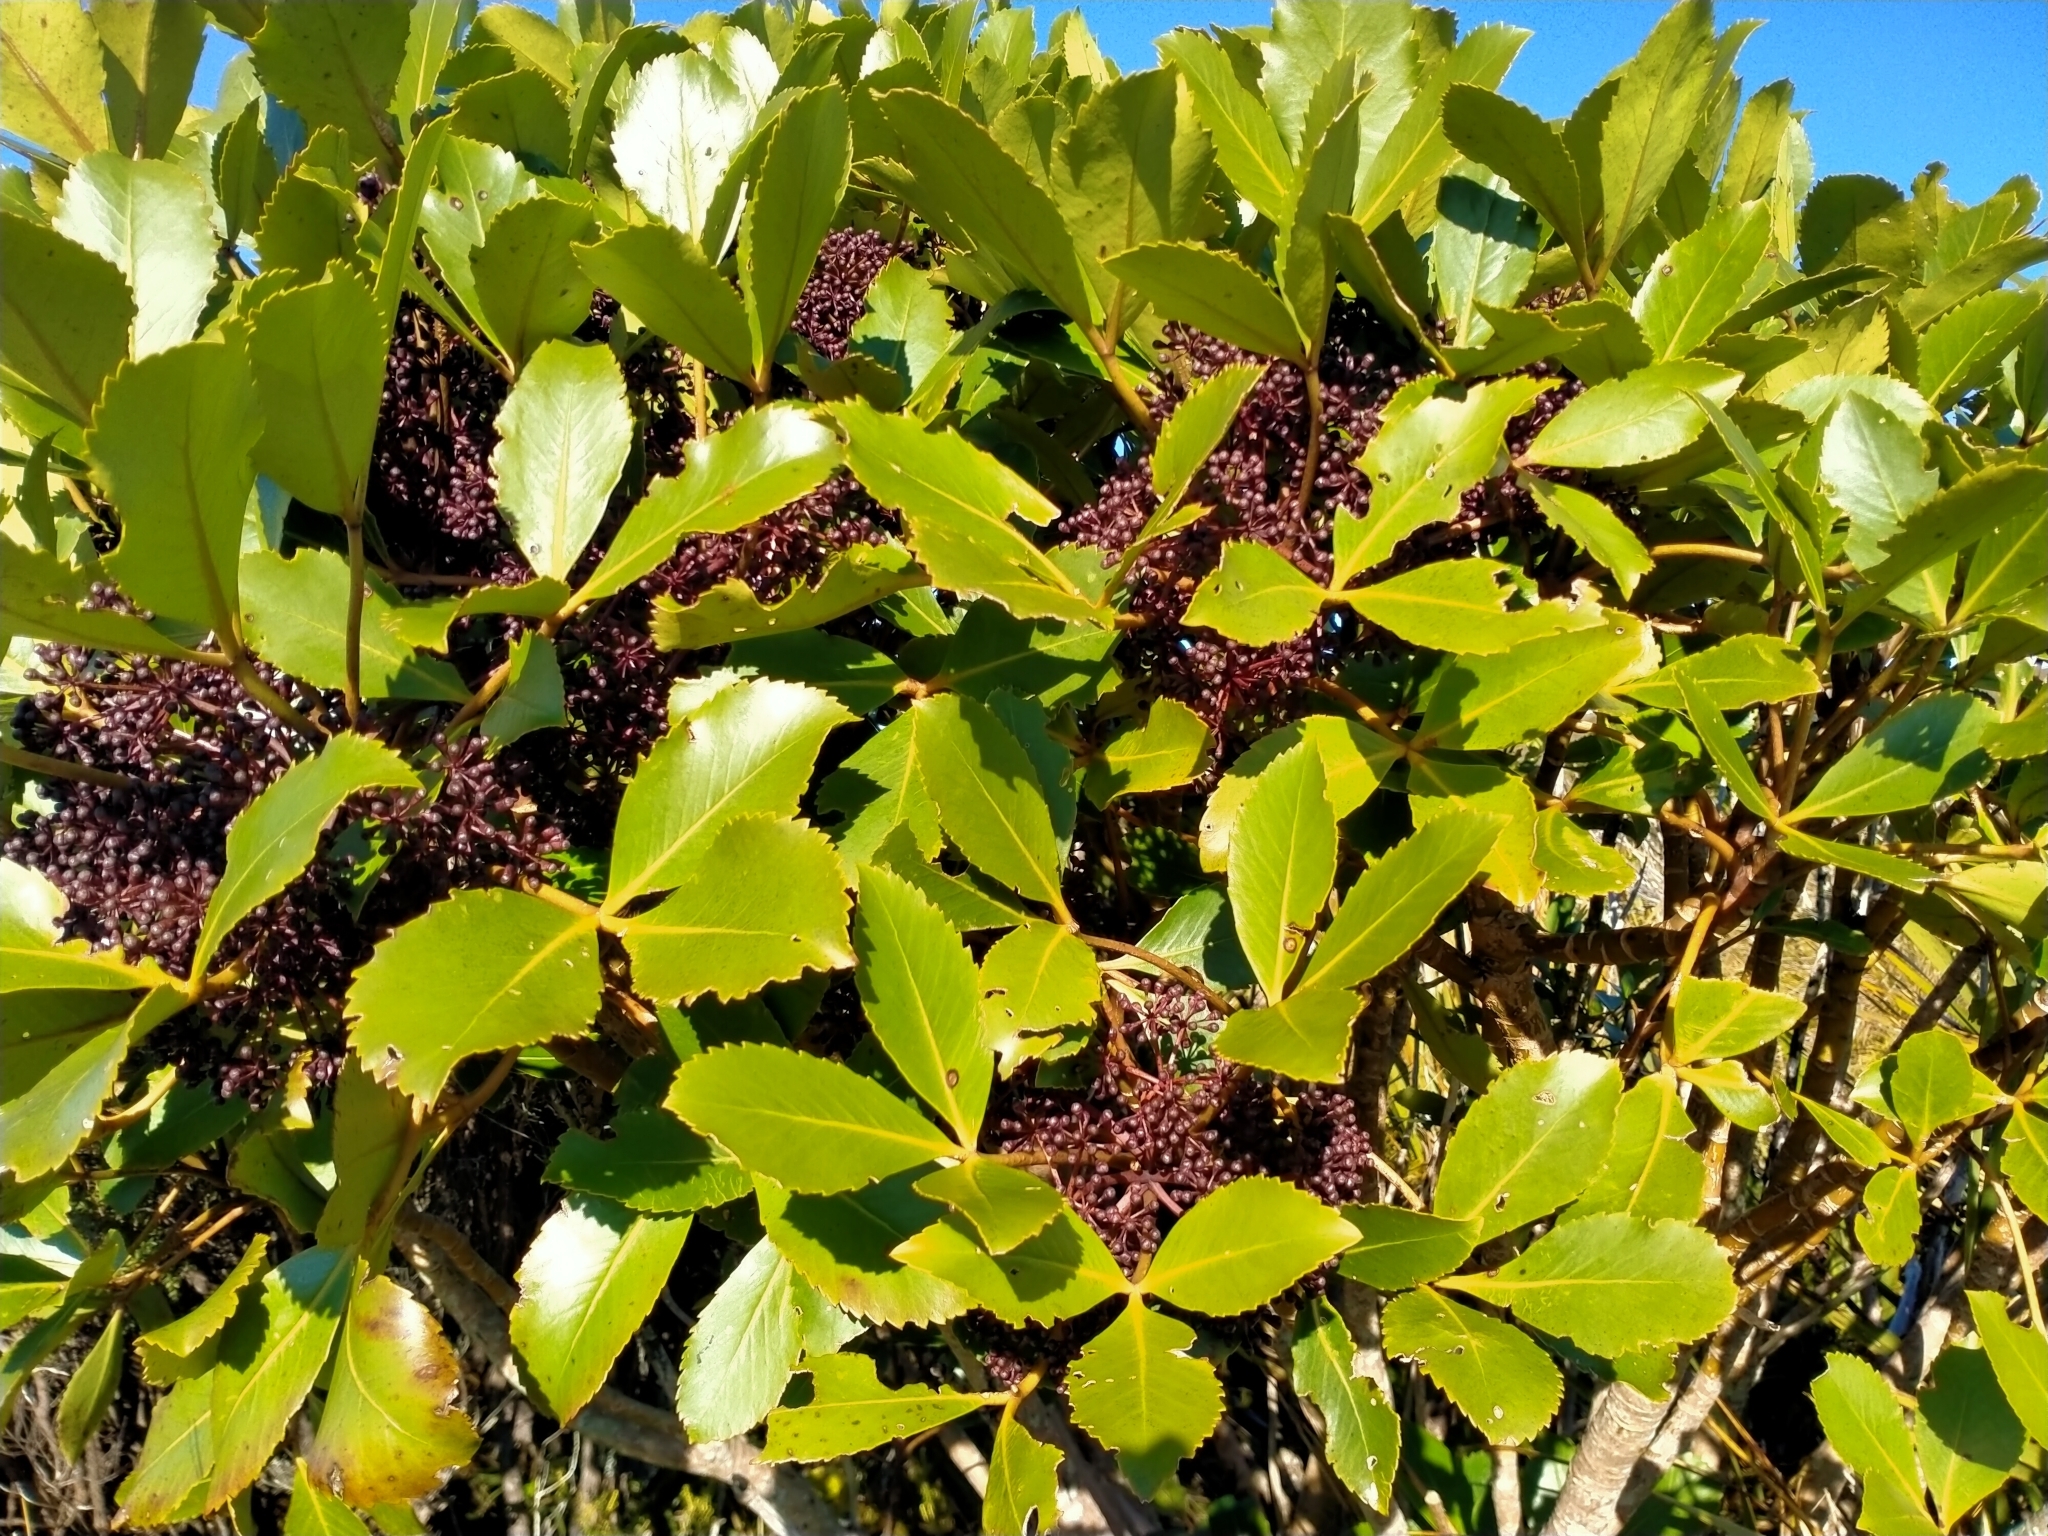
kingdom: Plantae
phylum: Tracheophyta
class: Magnoliopsida
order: Apiales
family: Araliaceae
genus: Neopanax
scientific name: Neopanax colensoi
